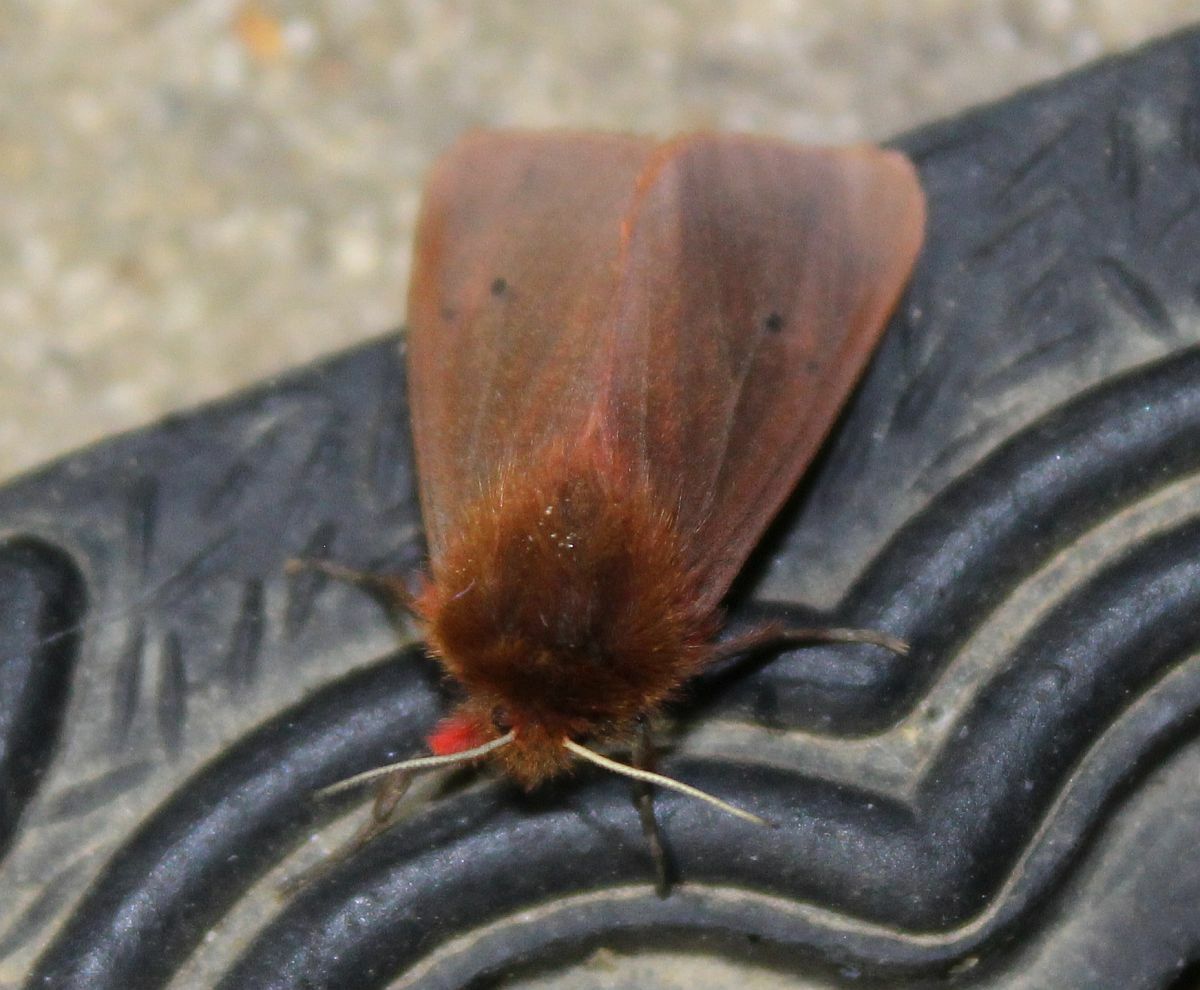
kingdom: Animalia
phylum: Arthropoda
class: Insecta
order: Lepidoptera
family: Erebidae
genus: Phragmatobia
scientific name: Phragmatobia fuliginosa
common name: Ruby tiger
